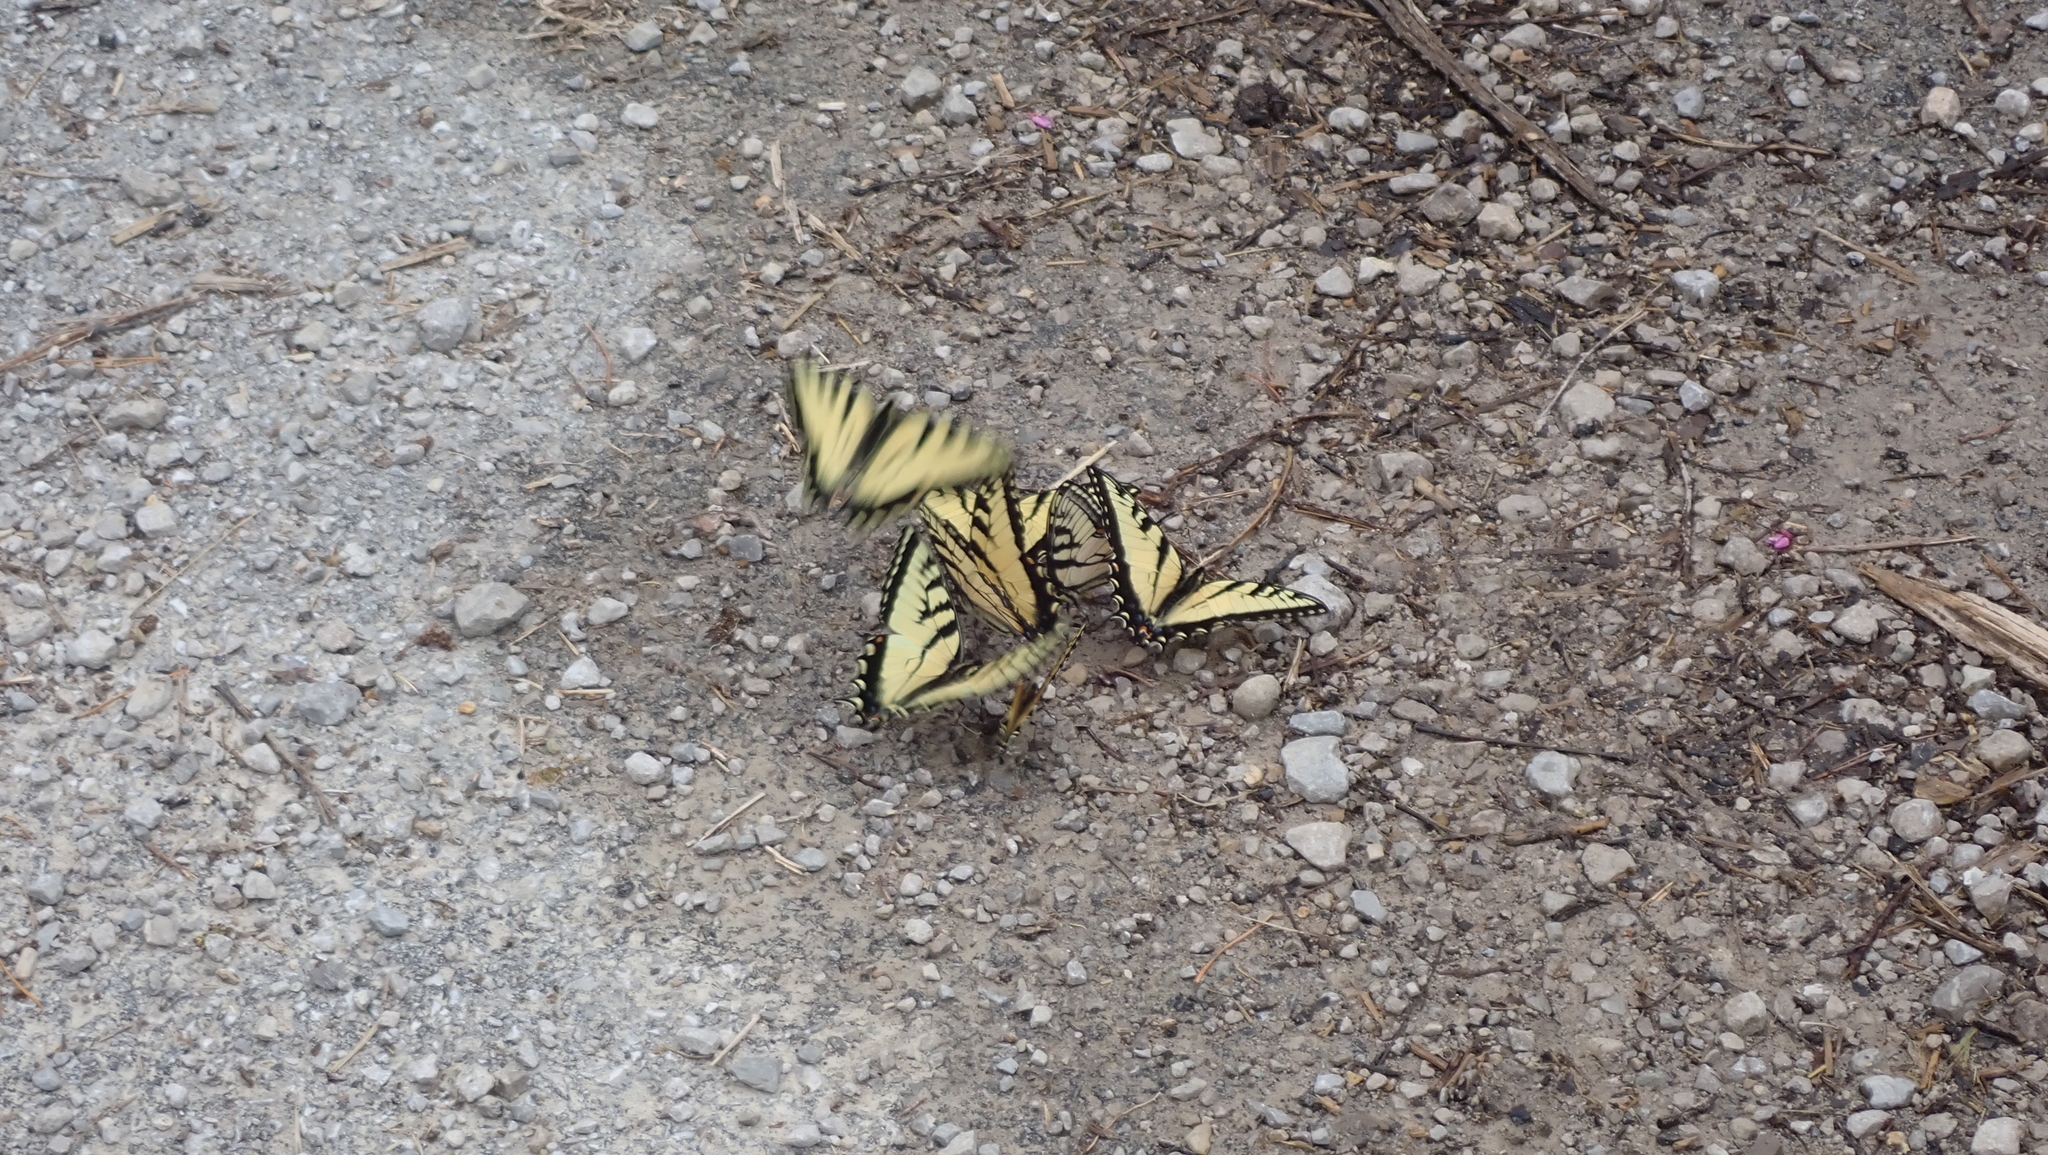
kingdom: Animalia
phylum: Arthropoda
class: Insecta
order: Lepidoptera
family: Papilionidae
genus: Papilio
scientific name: Papilio glaucus
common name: Tiger swallowtail
